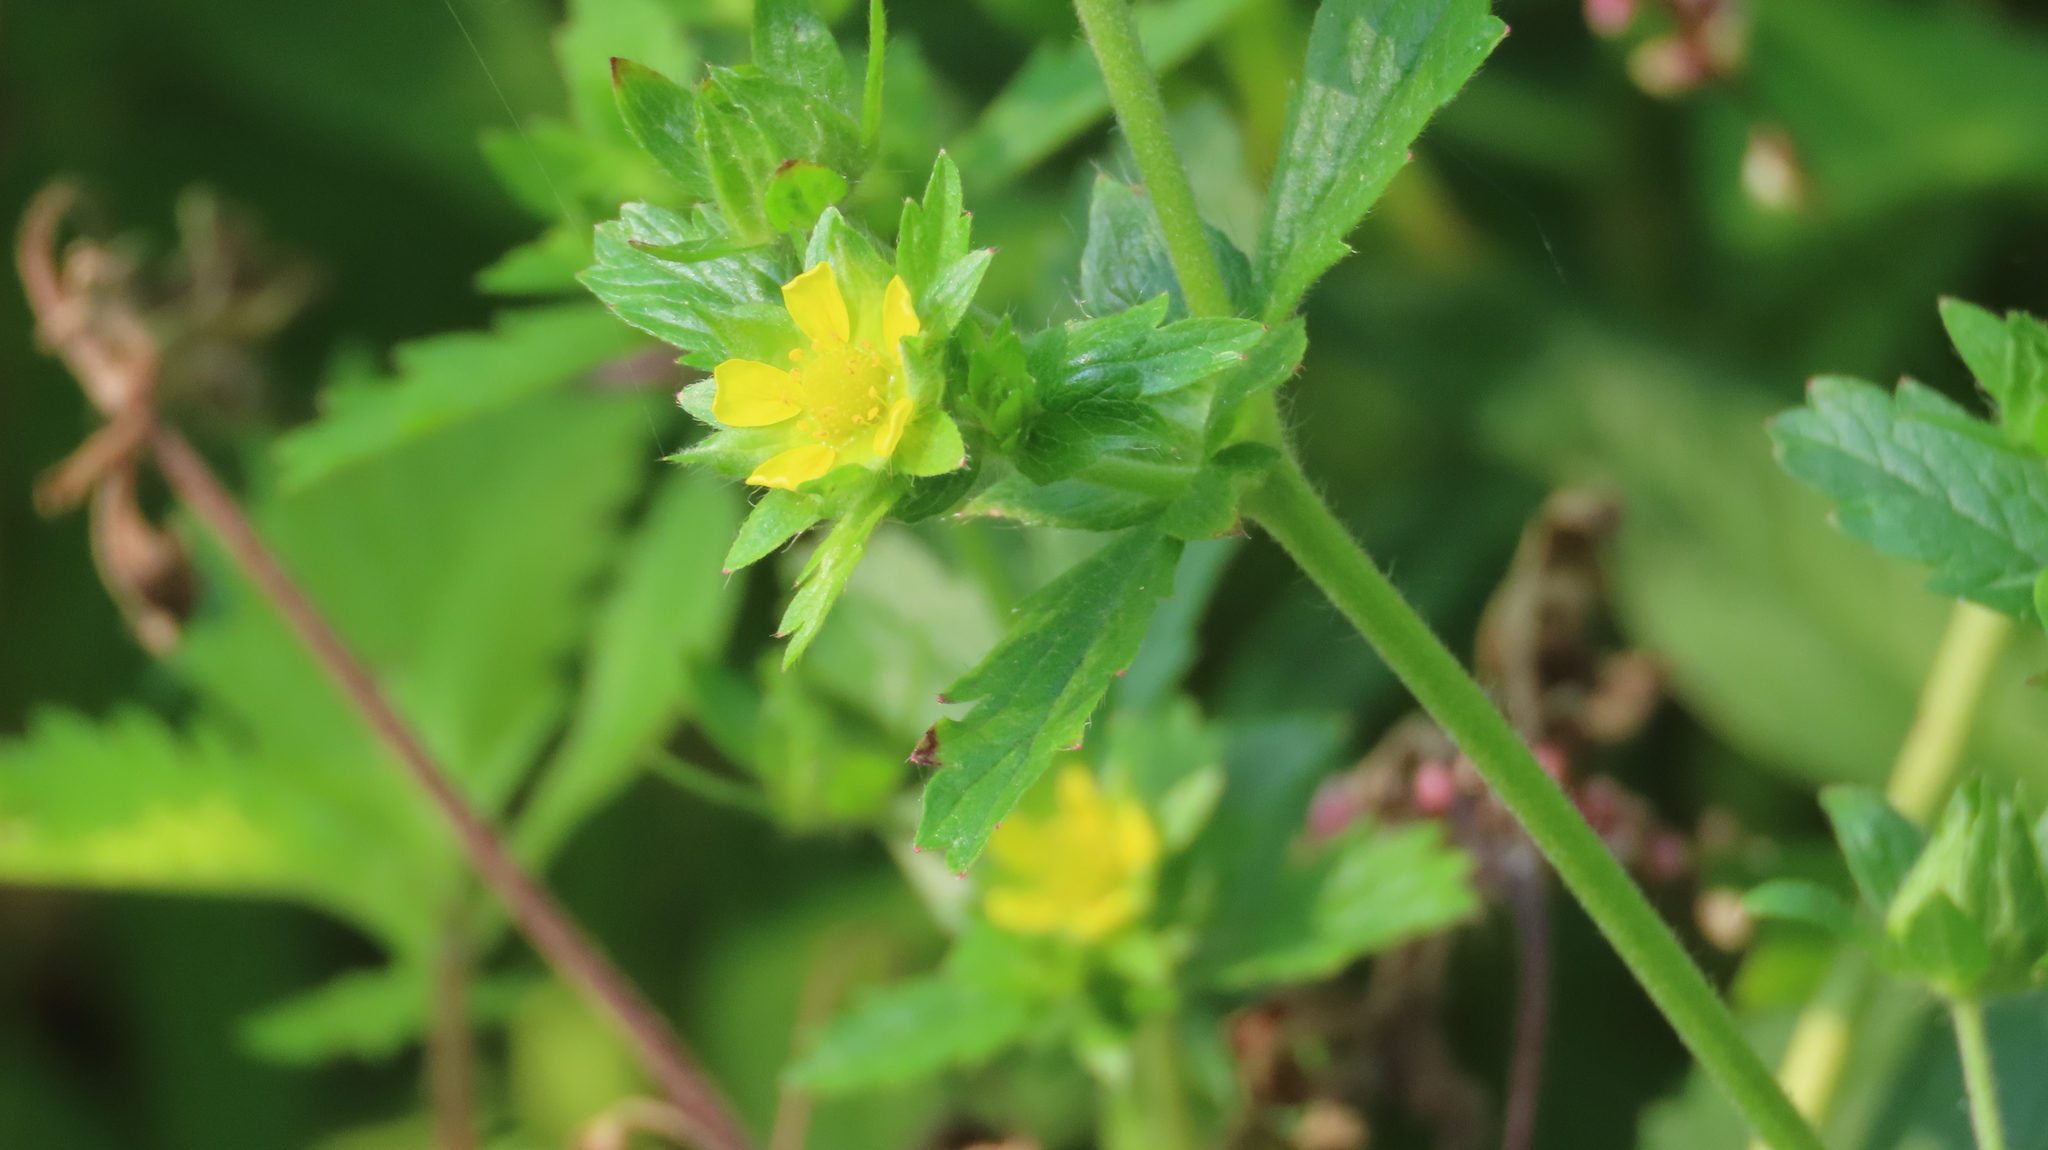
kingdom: Plantae
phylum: Tracheophyta
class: Magnoliopsida
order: Rosales
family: Rosaceae
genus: Potentilla
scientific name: Potentilla norvegica
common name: Ternate-leaved cinquefoil
